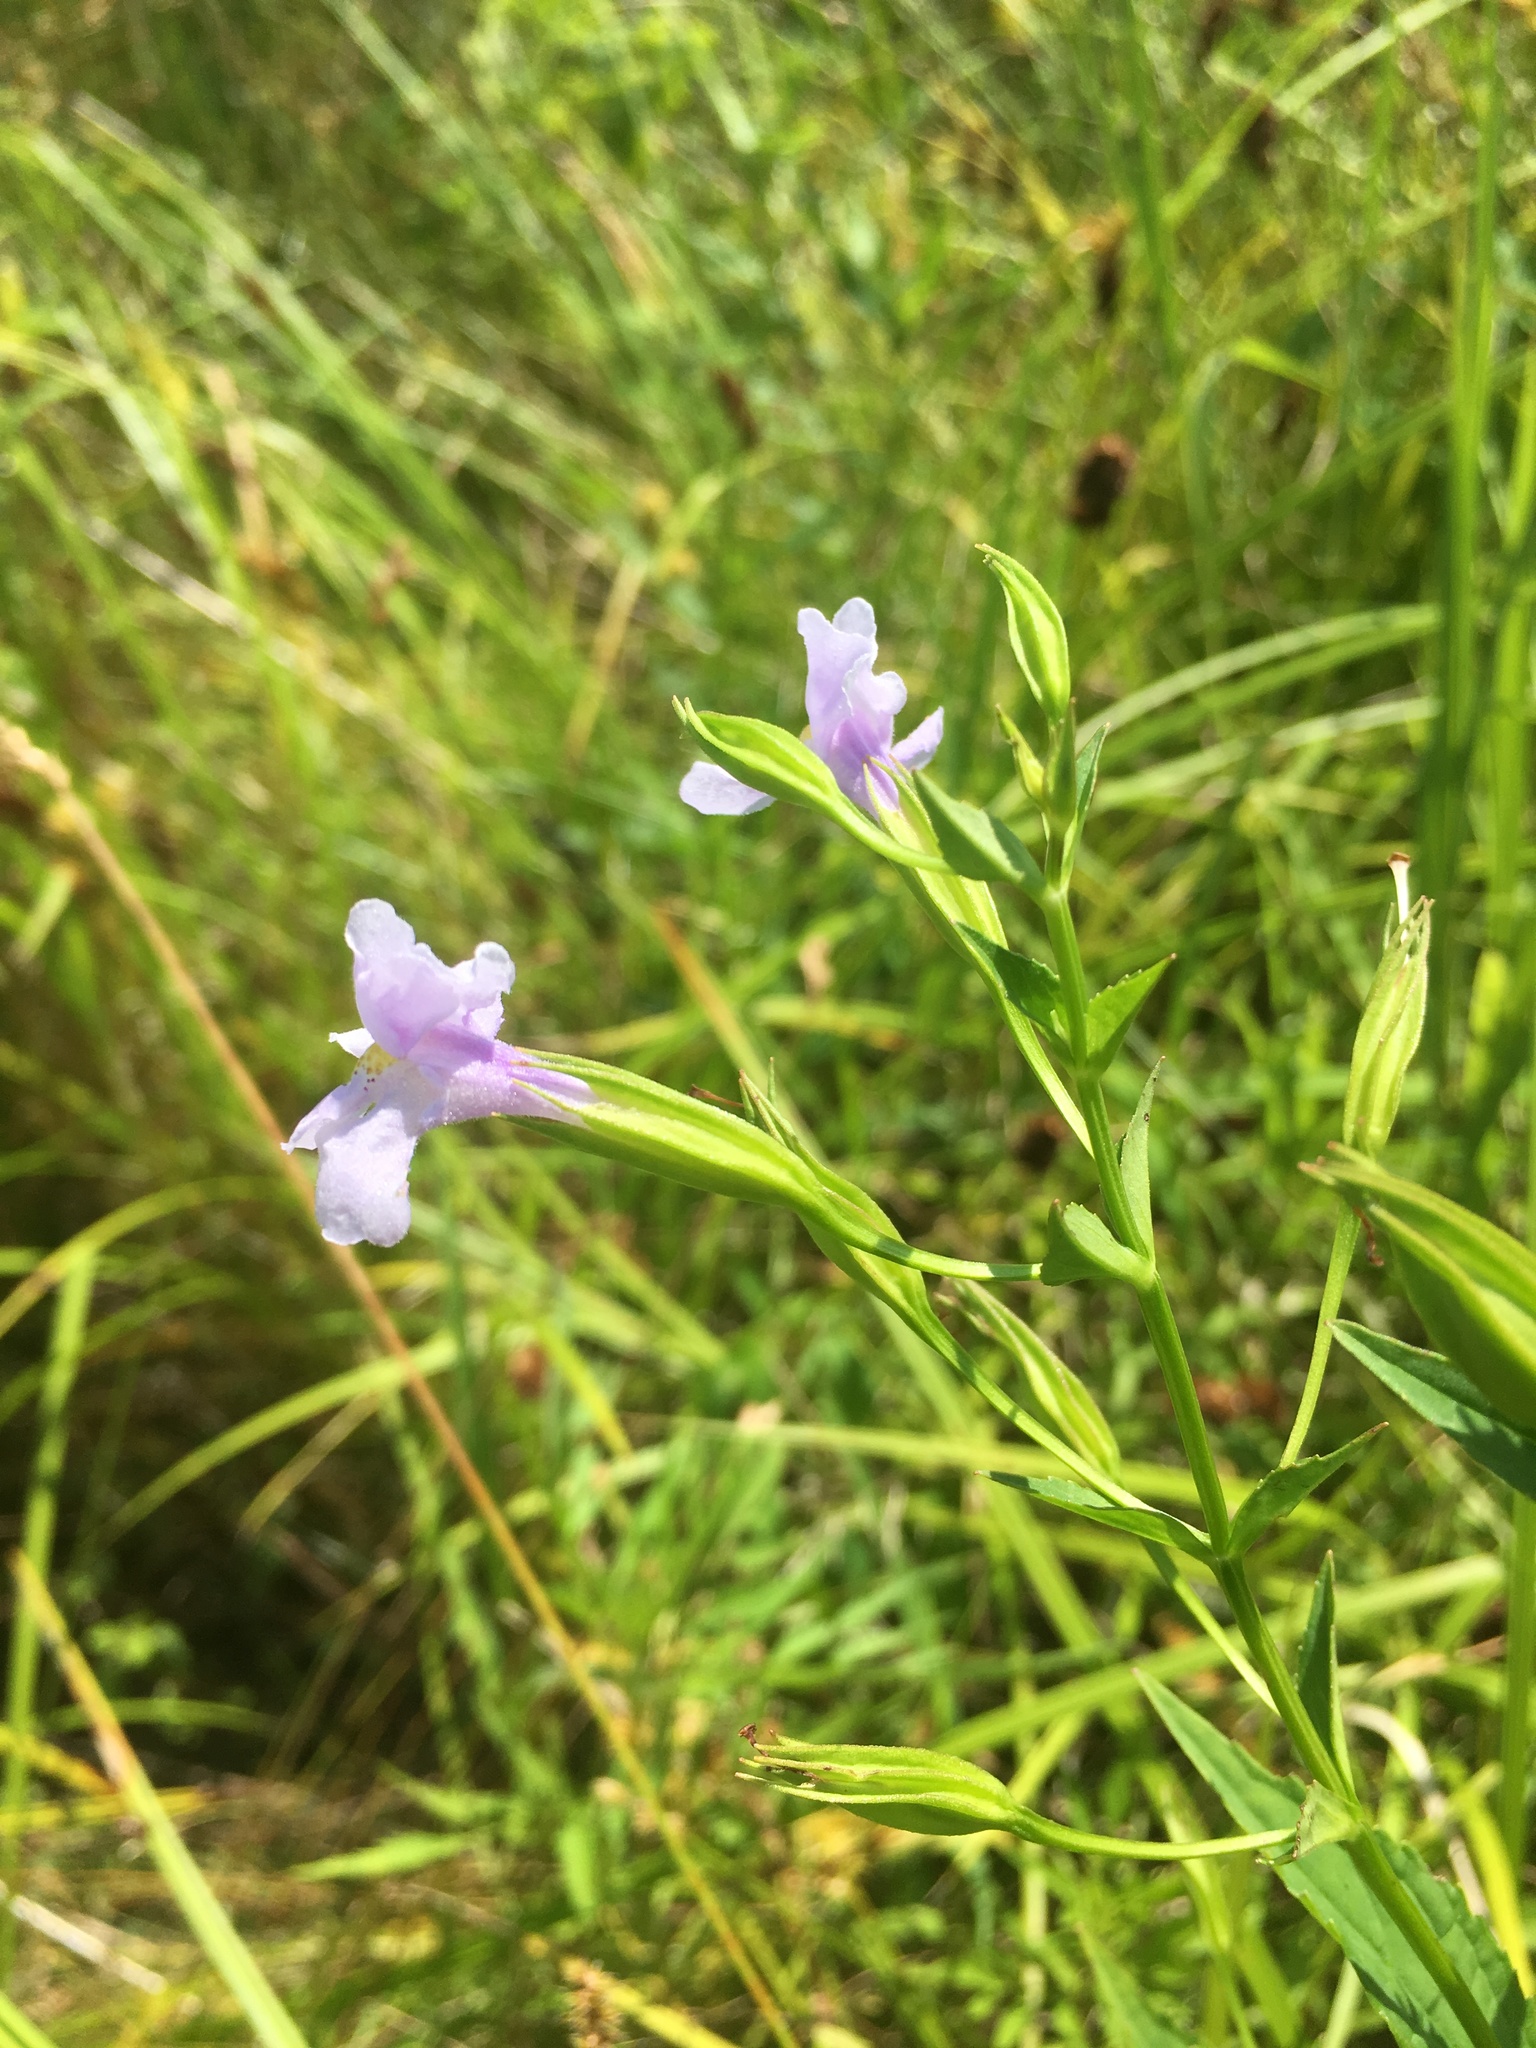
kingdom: Plantae
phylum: Tracheophyta
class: Magnoliopsida
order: Lamiales
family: Phrymaceae
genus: Mimulus
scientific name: Mimulus ringens
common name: Allegheny monkeyflower
